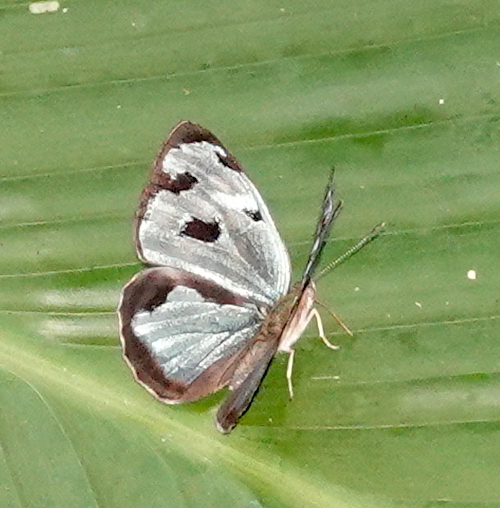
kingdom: Animalia
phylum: Arthropoda
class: Insecta
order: Lepidoptera
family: Nymphalidae
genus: Dynamine
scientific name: Dynamine mylitta
